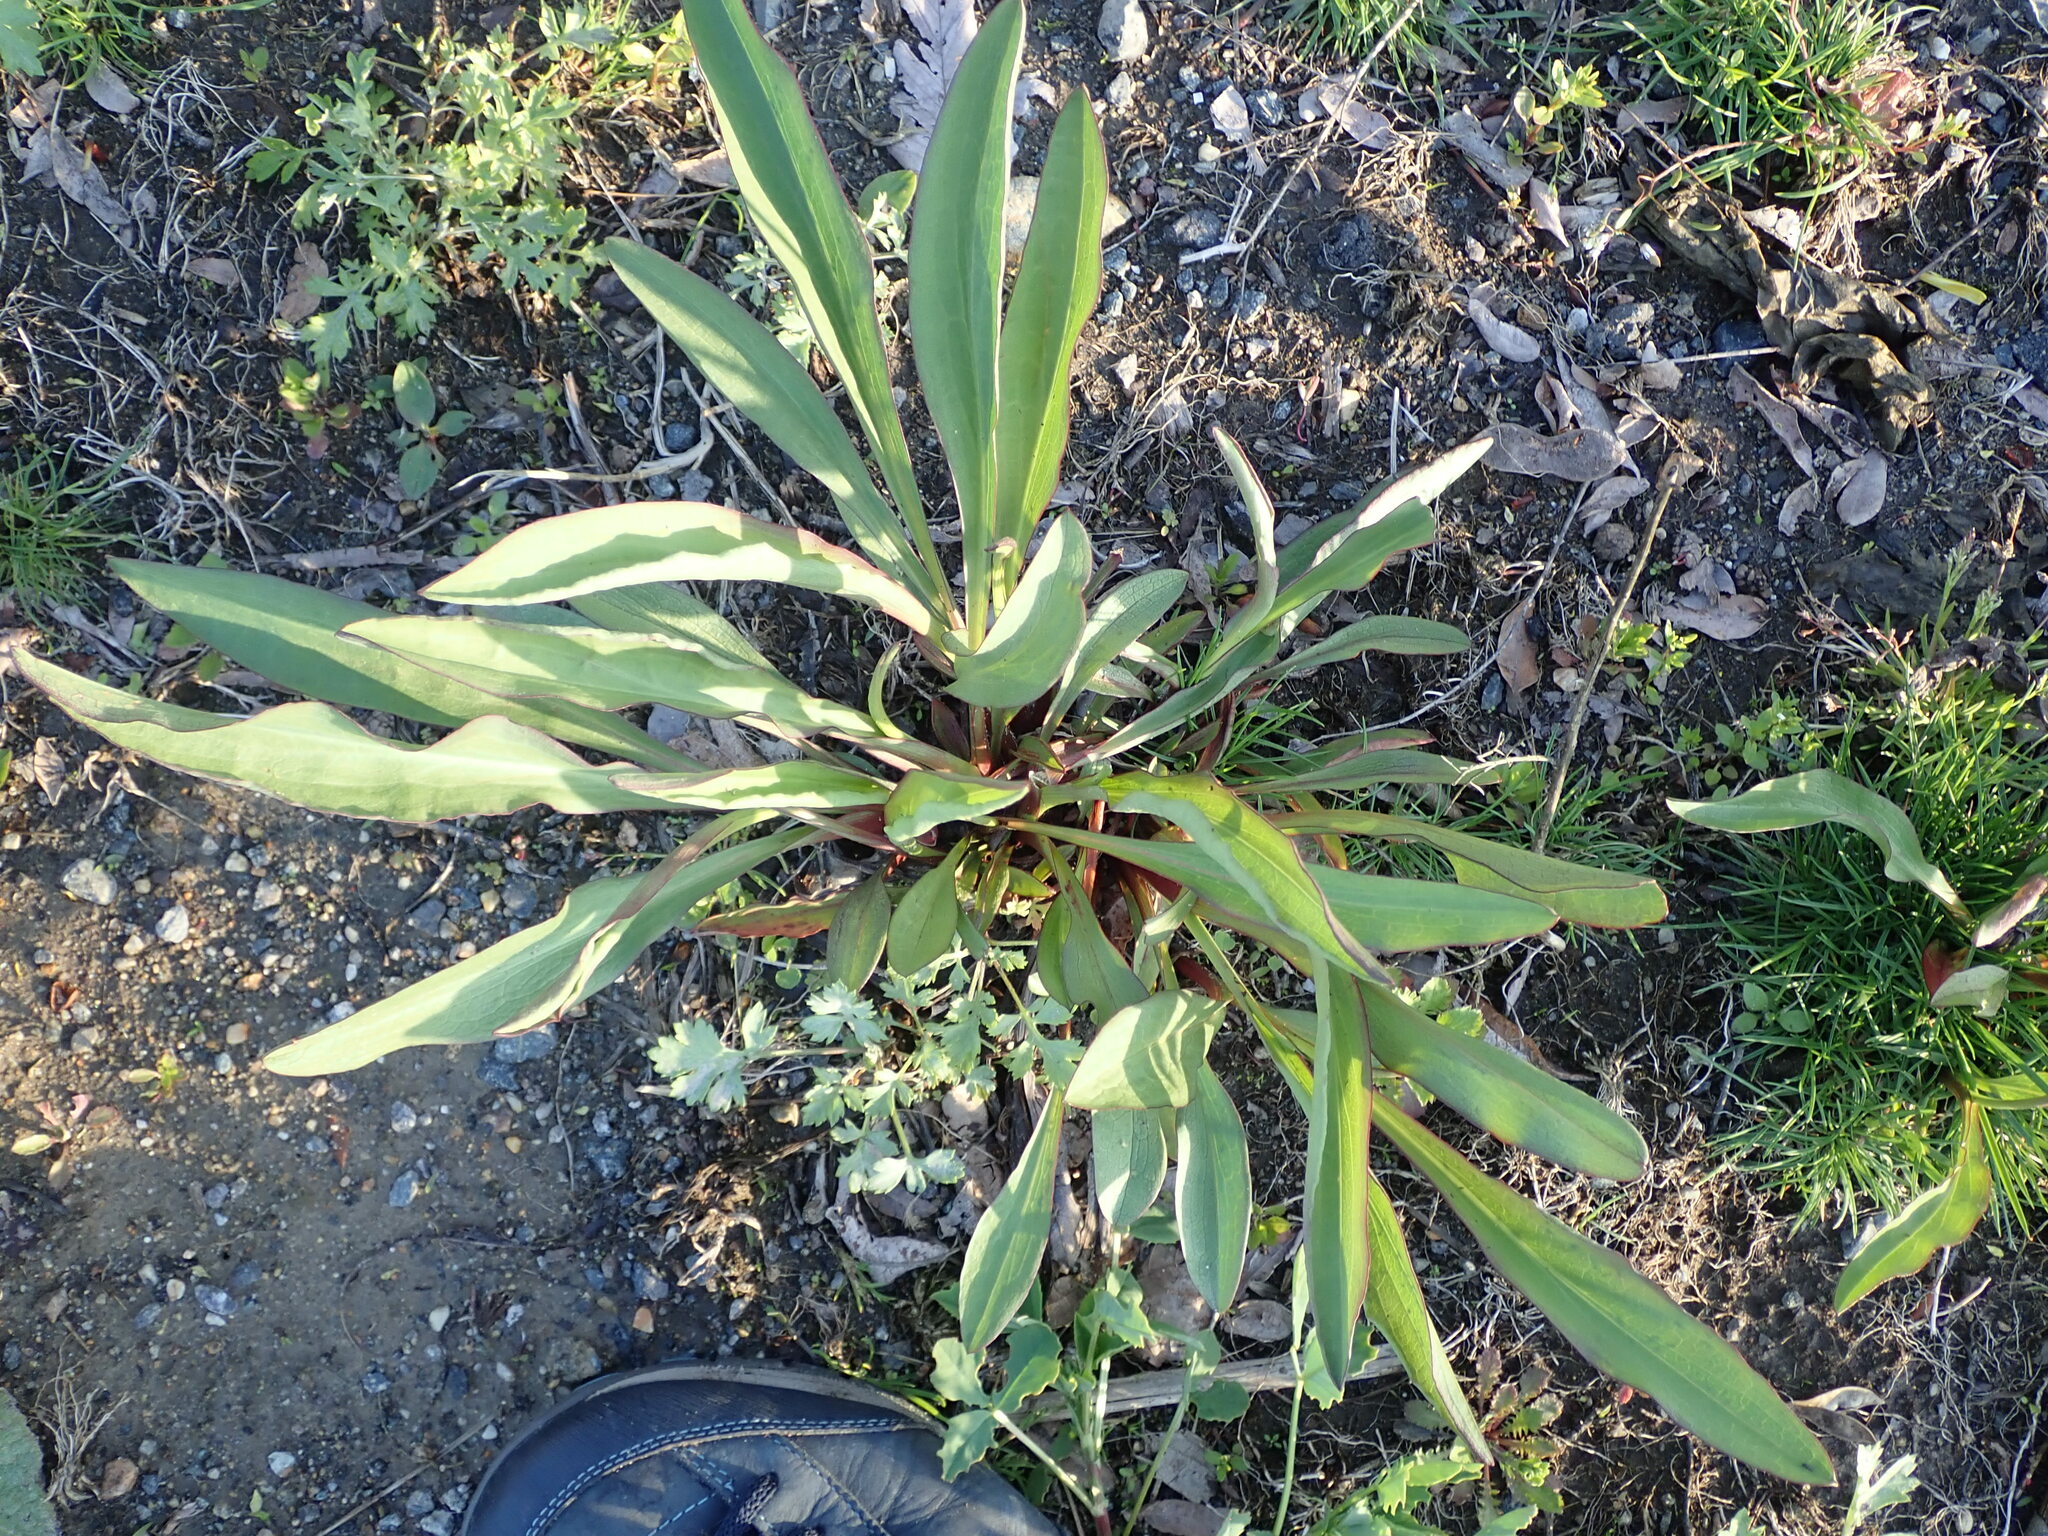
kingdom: Plantae
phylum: Tracheophyta
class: Magnoliopsida
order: Asterales
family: Asteraceae
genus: Solidago
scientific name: Solidago sempervirens
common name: Salt-marsh goldenrod
